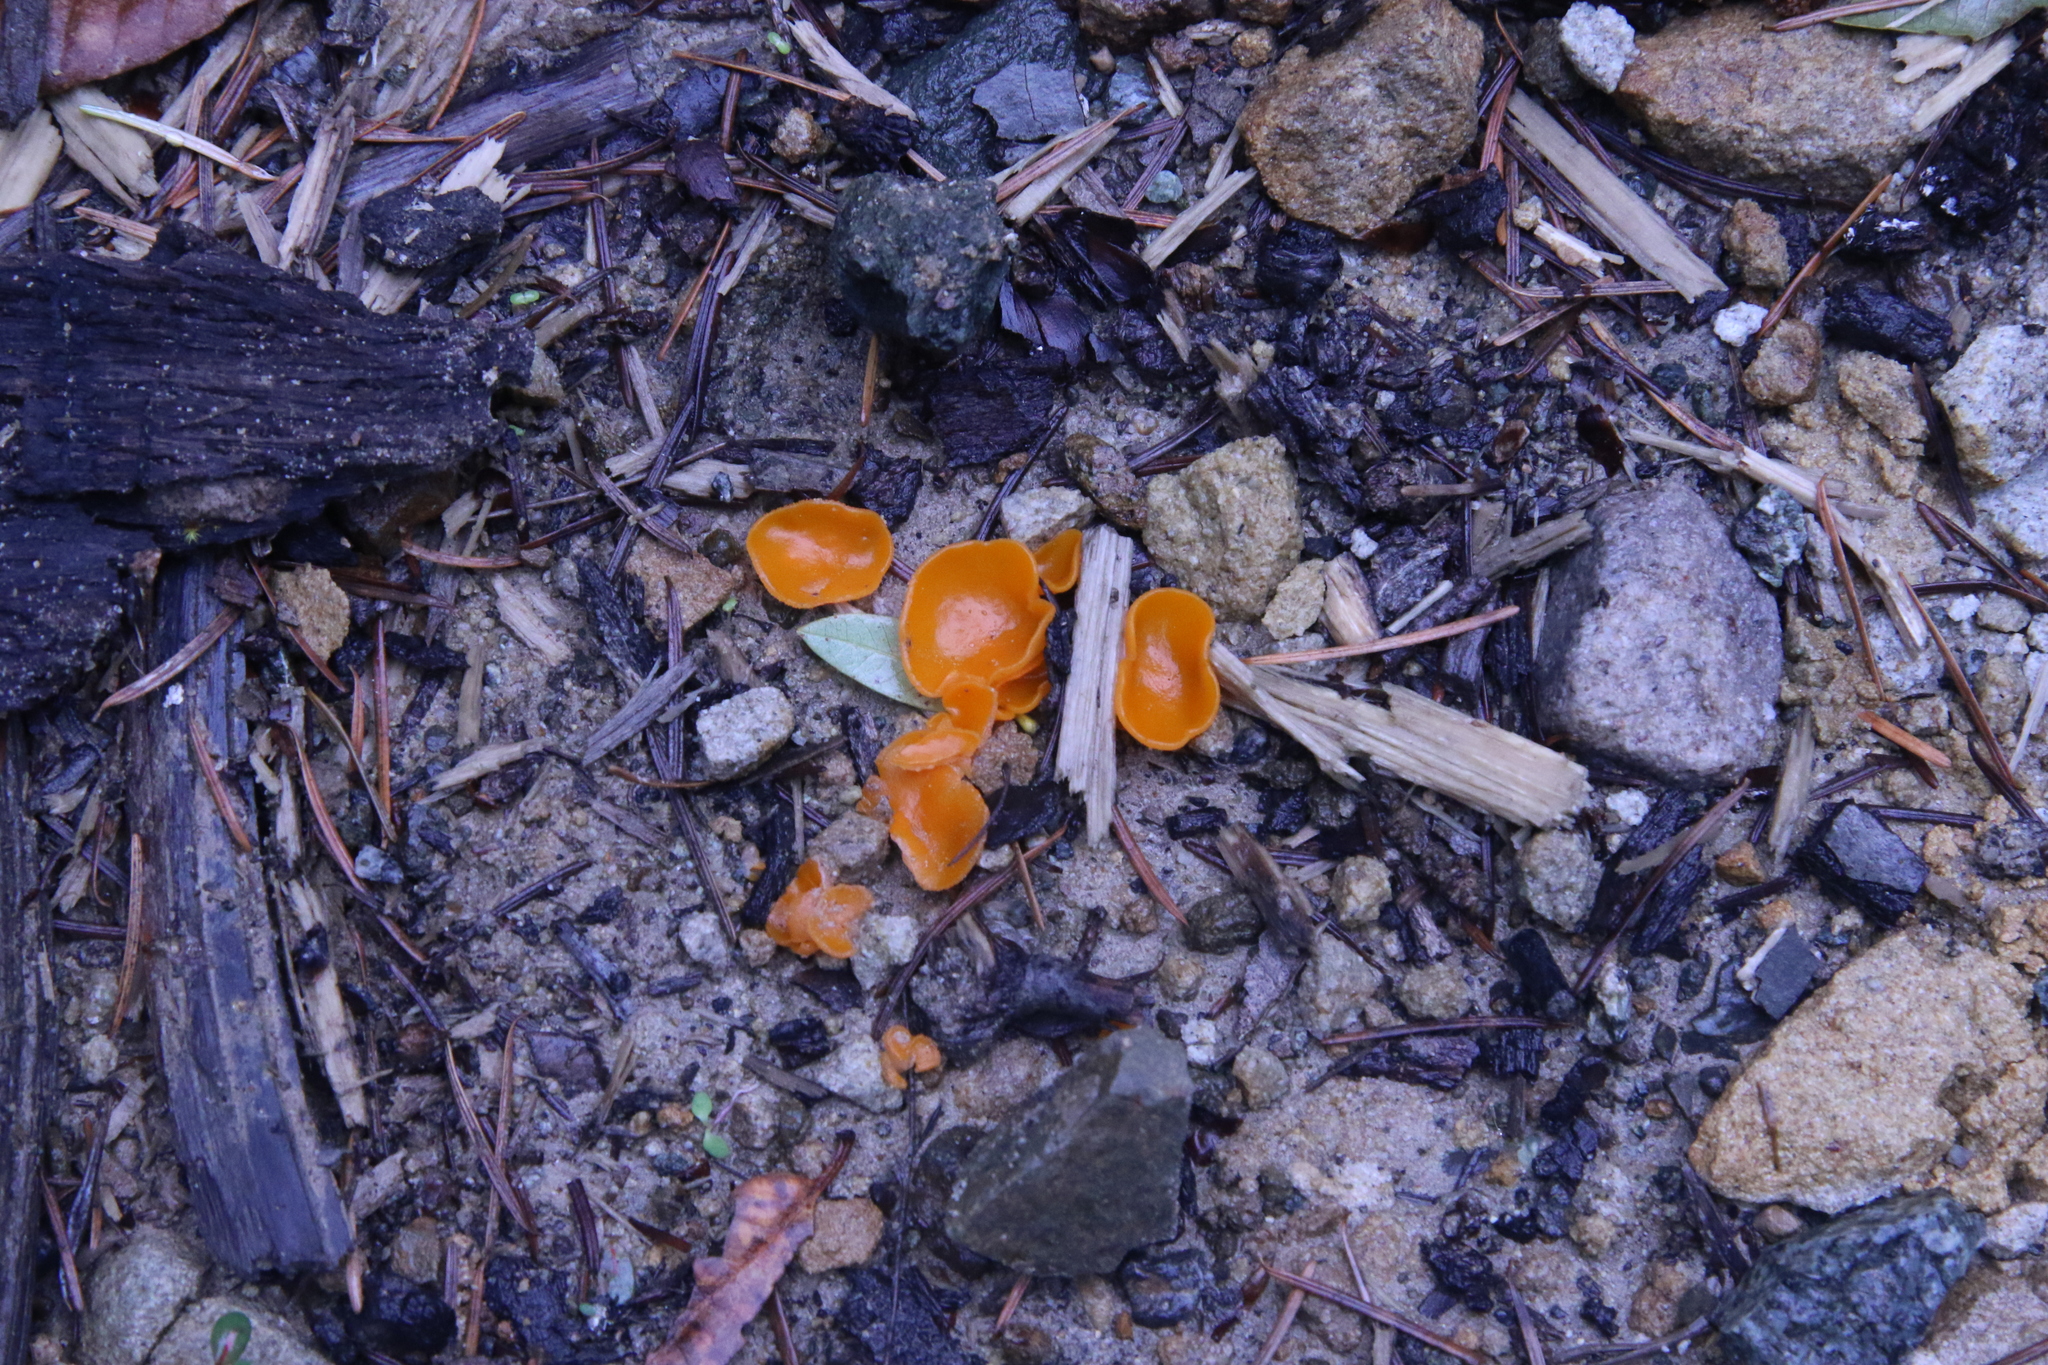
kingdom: Fungi
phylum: Ascomycota
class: Pezizomycetes
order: Pezizales
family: Pyronemataceae
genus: Aleuria
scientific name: Aleuria aurantia
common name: Orange peel fungus
